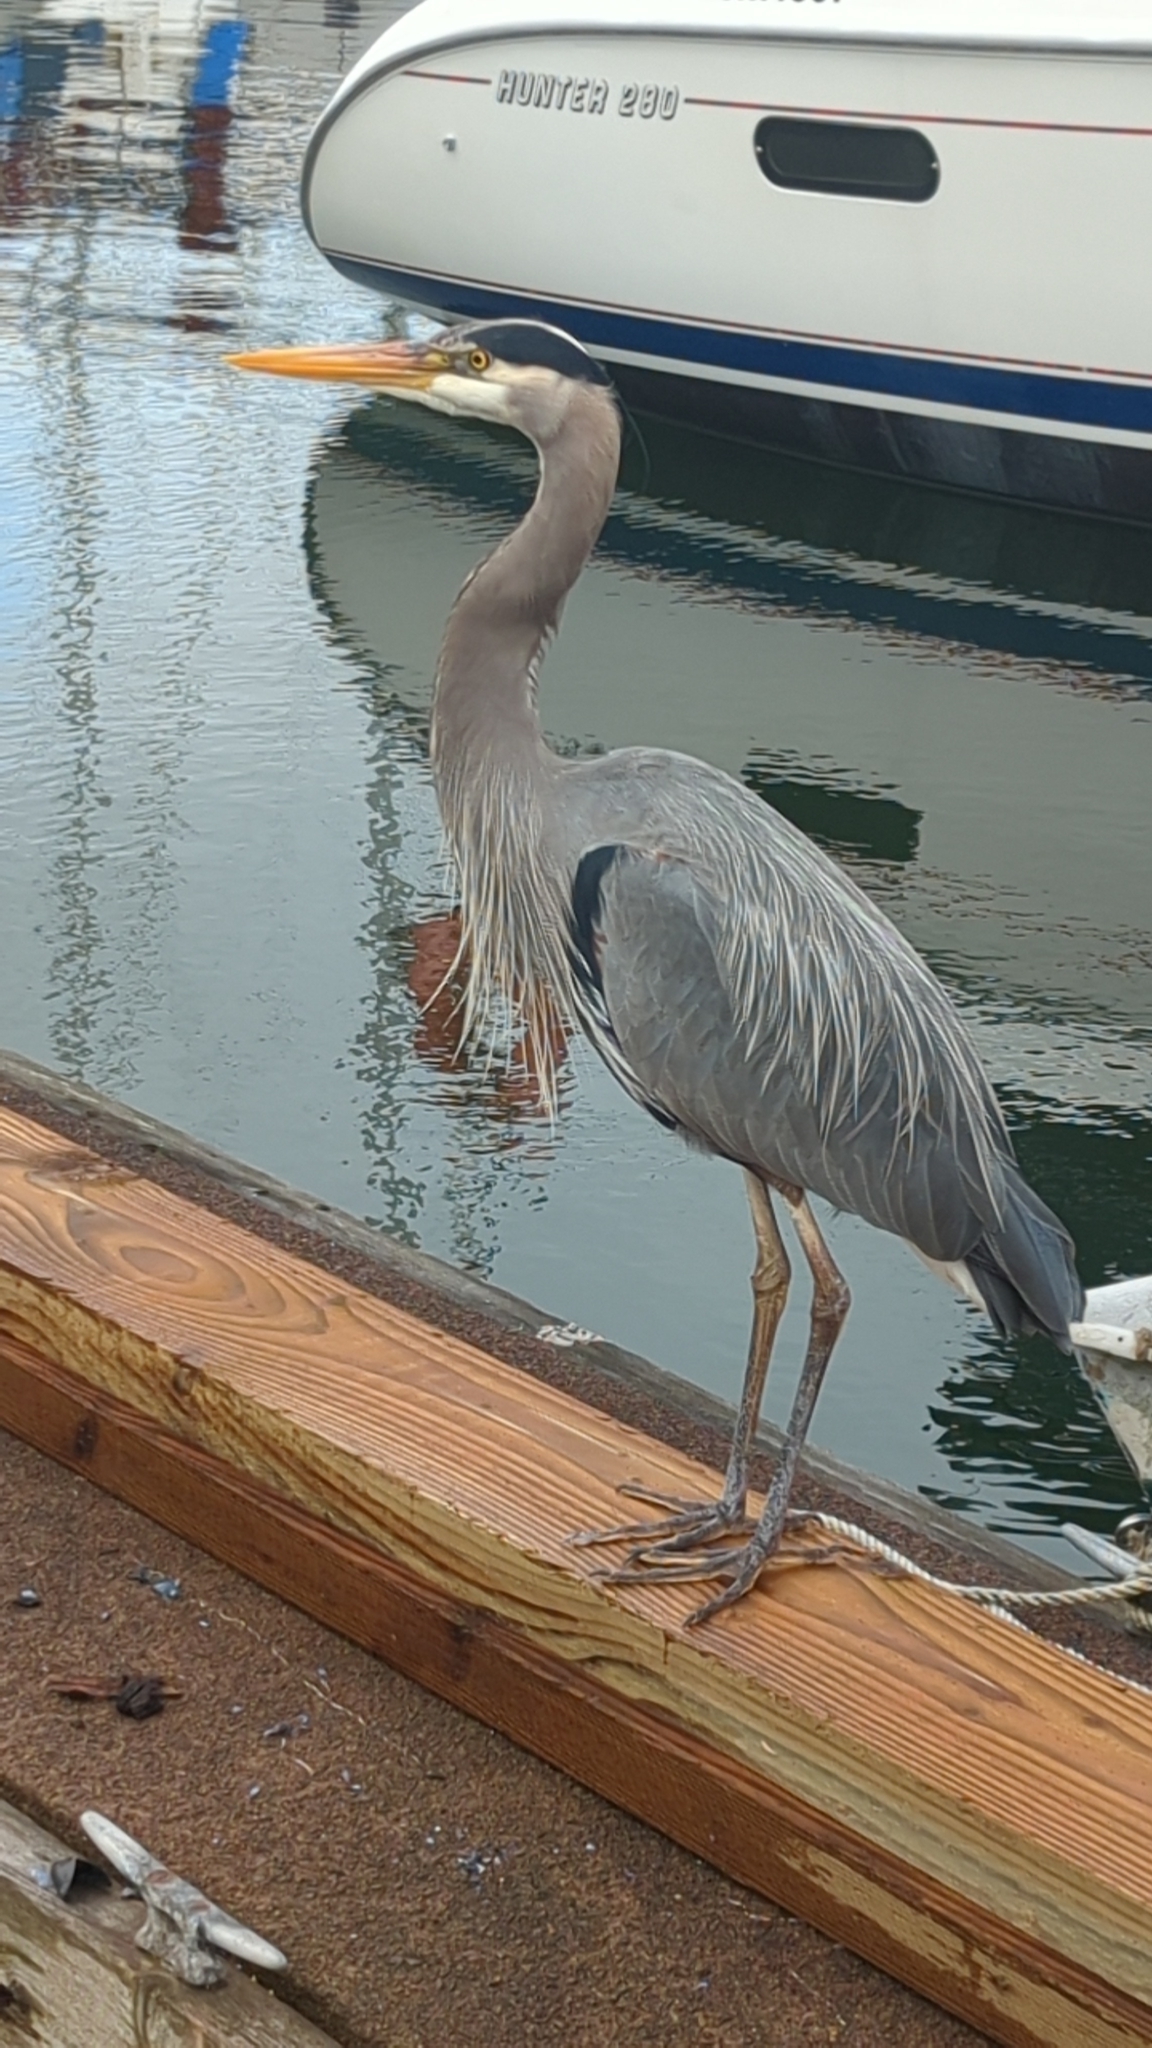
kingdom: Animalia
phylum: Chordata
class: Aves
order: Pelecaniformes
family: Ardeidae
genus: Ardea
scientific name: Ardea herodias
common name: Great blue heron
